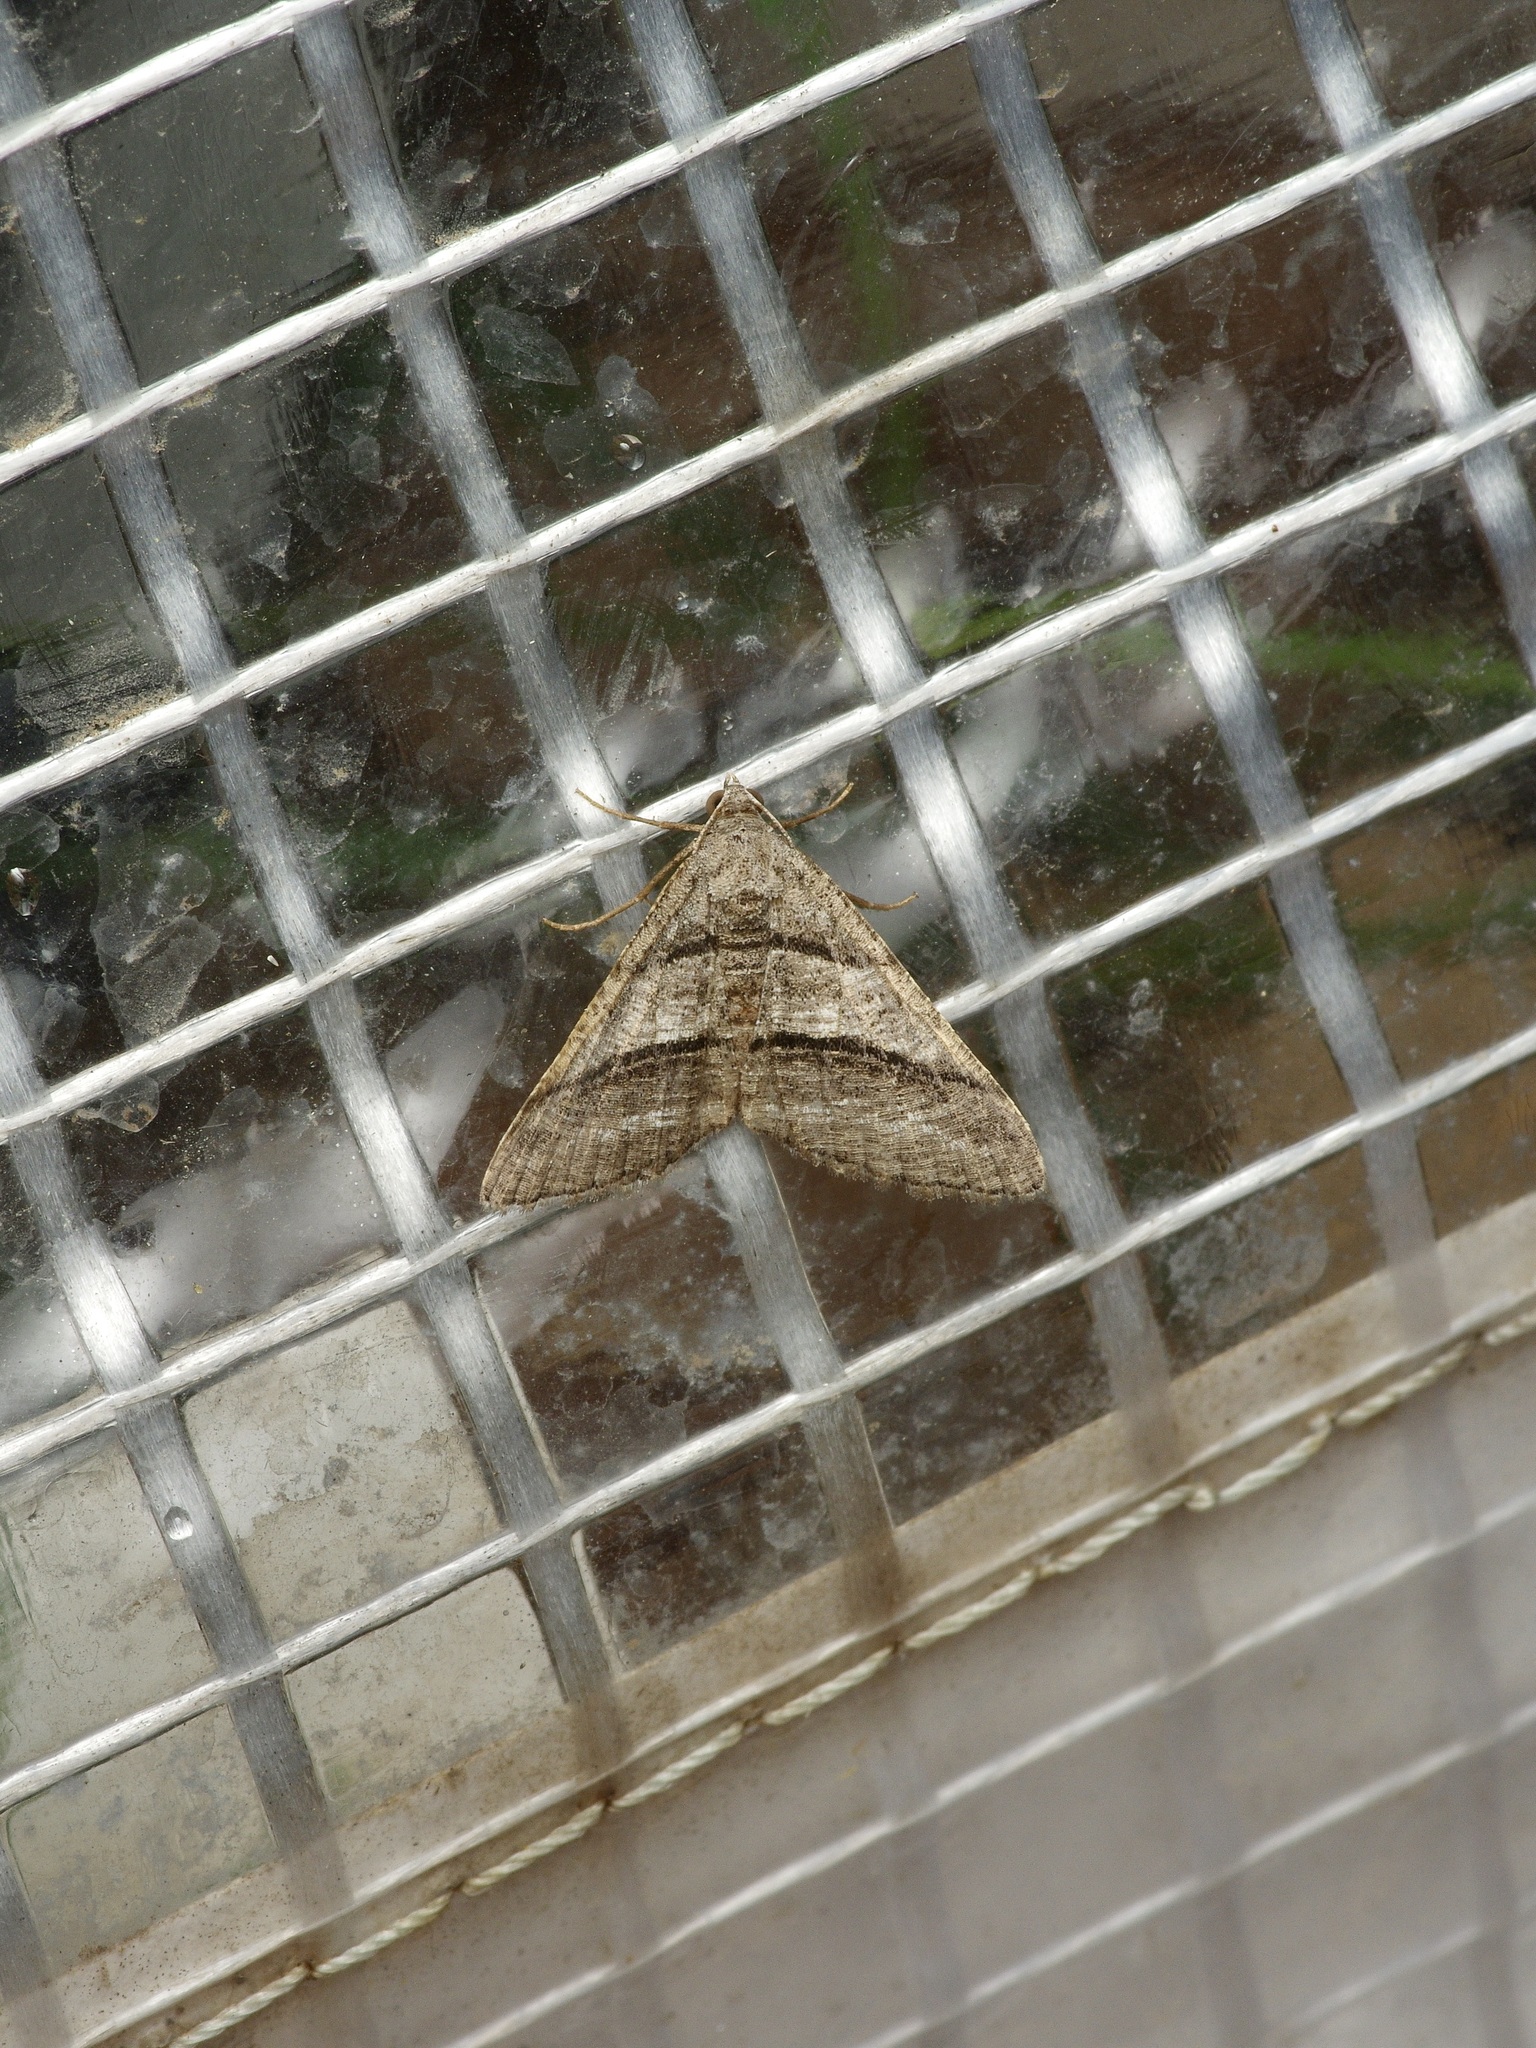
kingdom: Animalia
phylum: Arthropoda
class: Insecta
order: Lepidoptera
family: Geometridae
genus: Digrammia
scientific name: Digrammia atrofasciata
